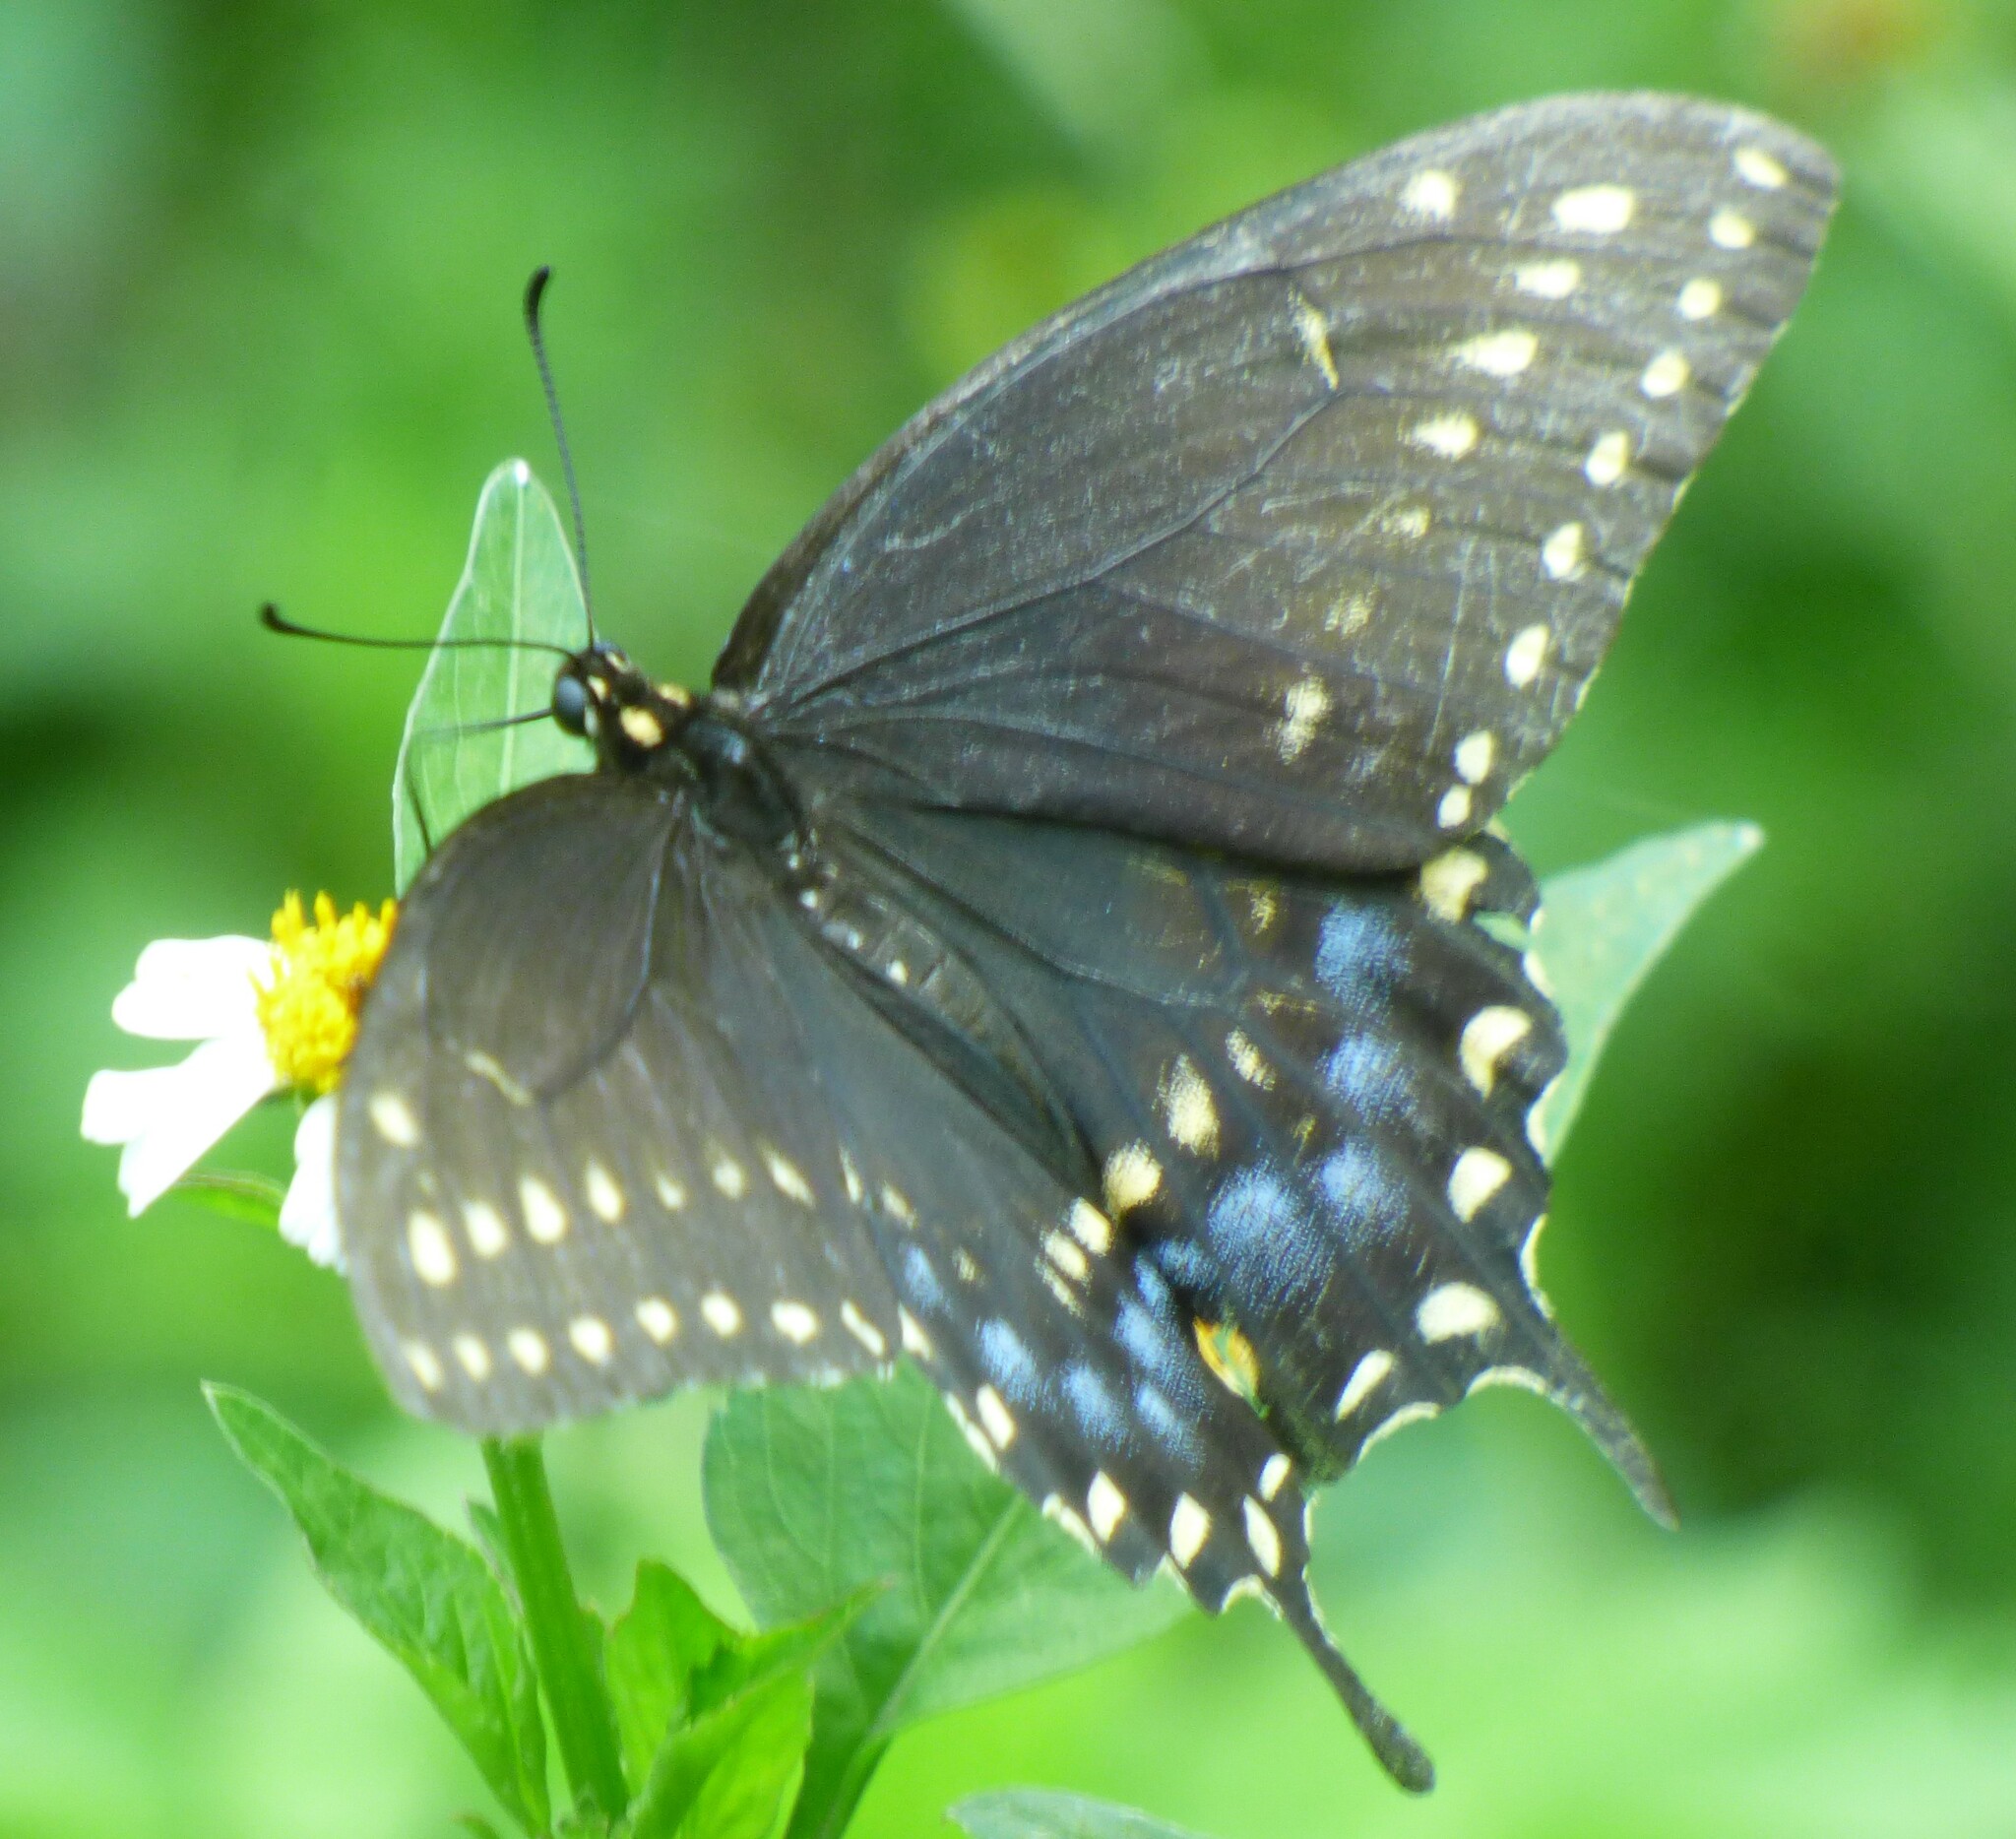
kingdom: Animalia
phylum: Arthropoda
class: Insecta
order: Lepidoptera
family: Papilionidae
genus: Papilio
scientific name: Papilio polyxenes
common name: Black swallowtail
